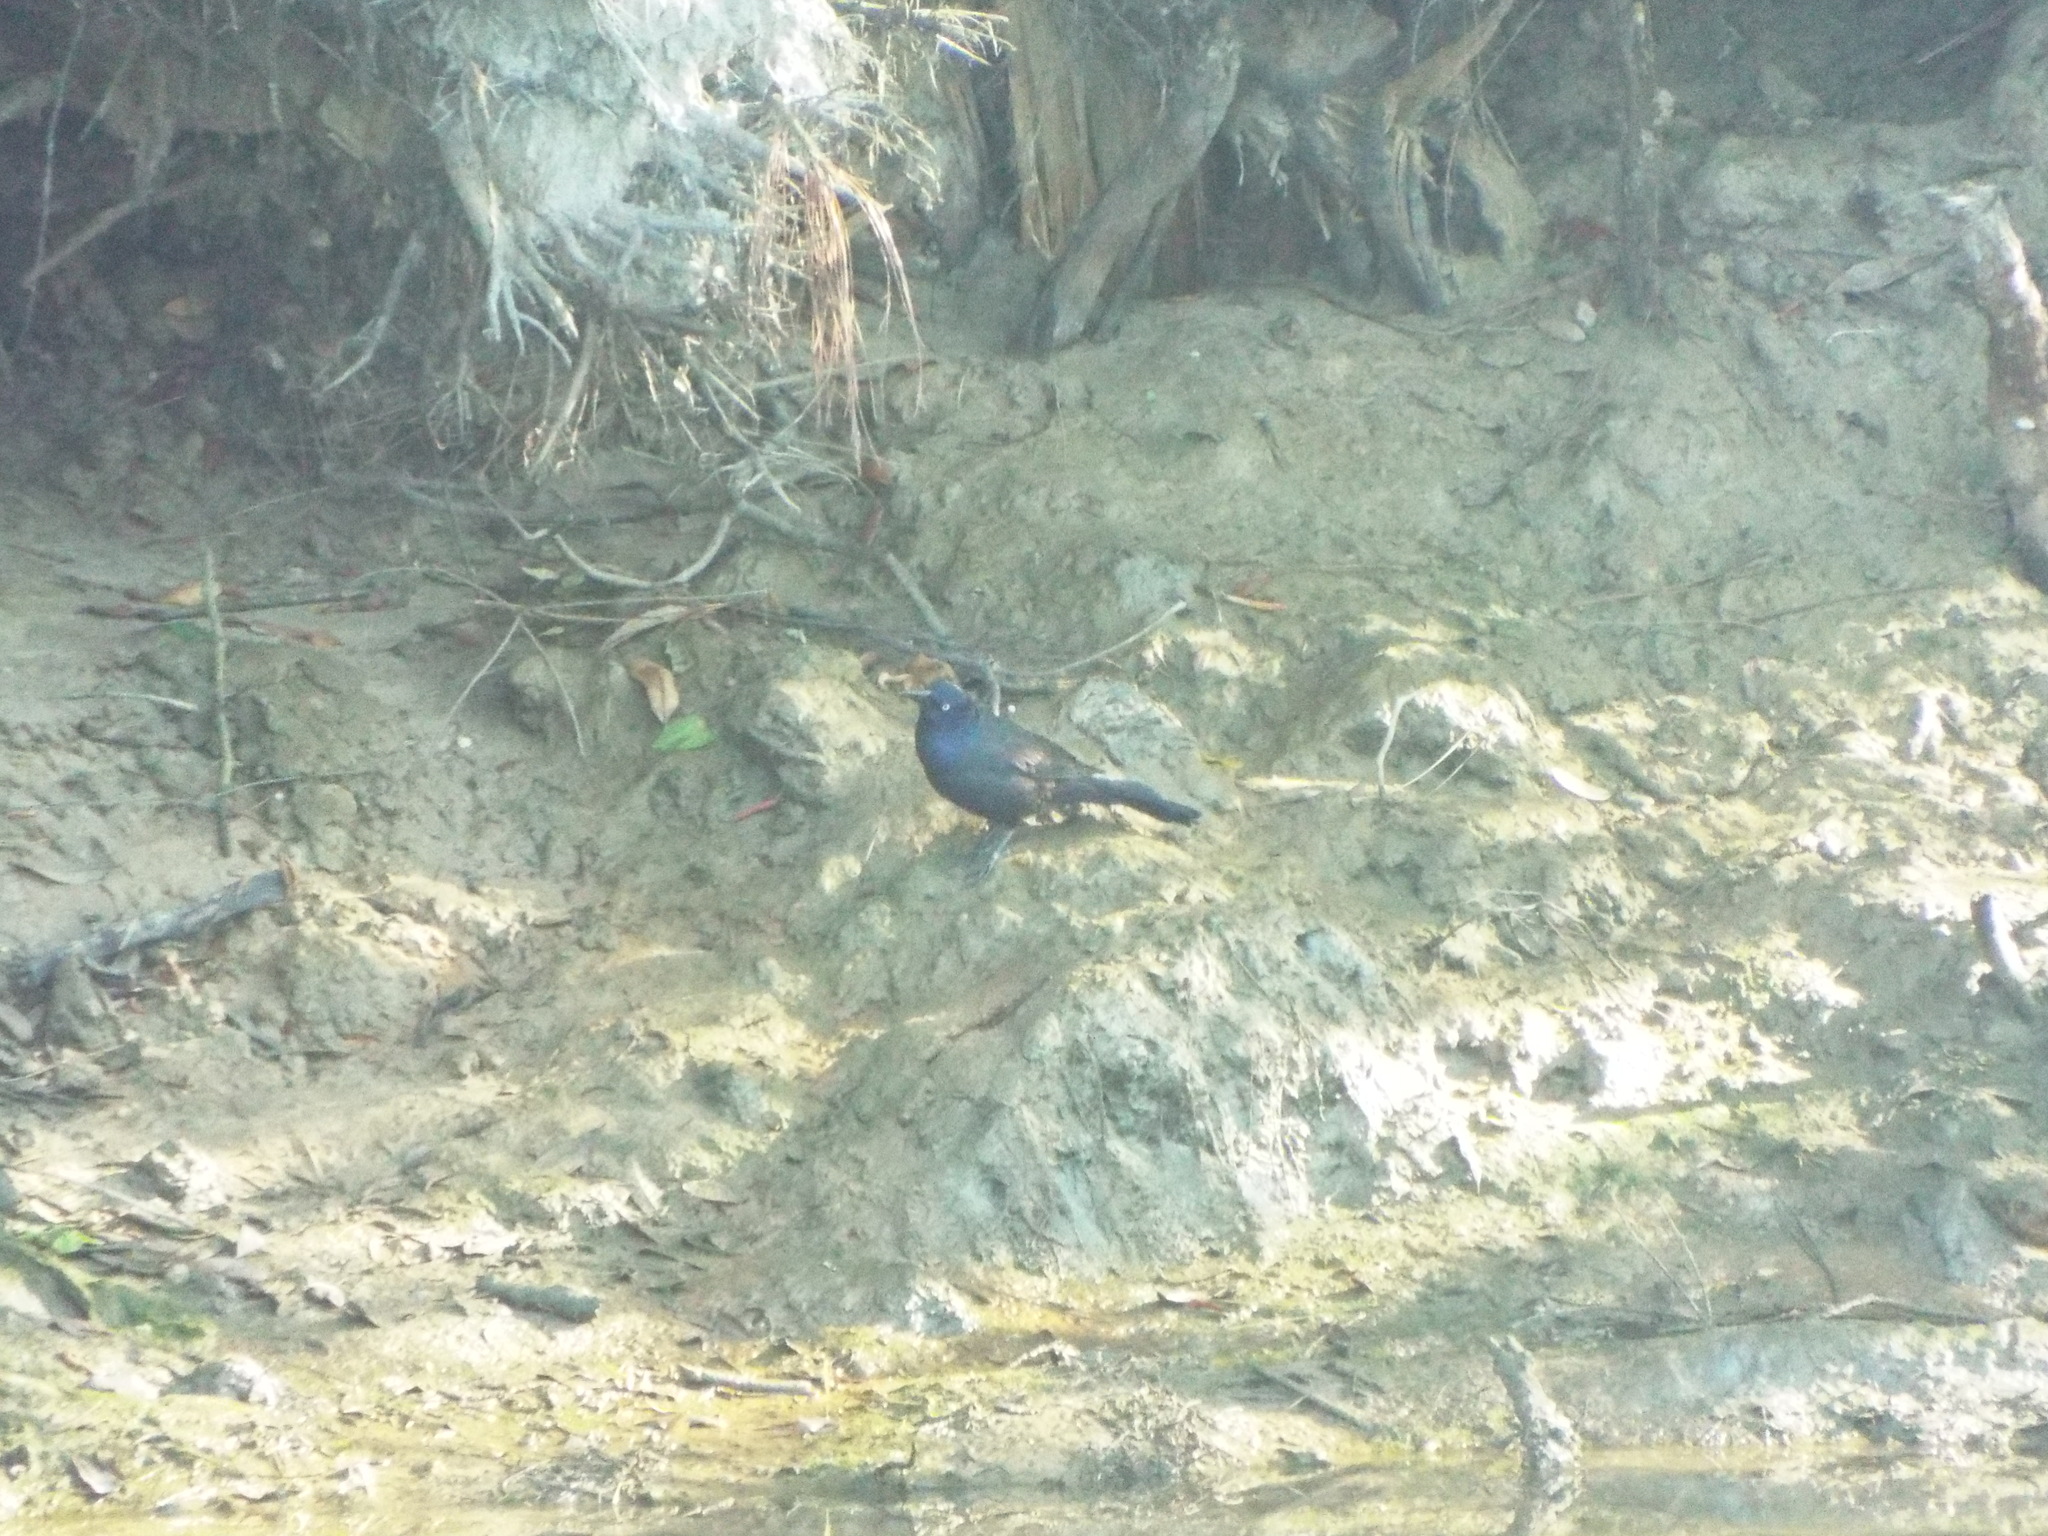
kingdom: Animalia
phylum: Chordata
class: Aves
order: Passeriformes
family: Icteridae
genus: Quiscalus
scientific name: Quiscalus quiscula
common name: Common grackle
